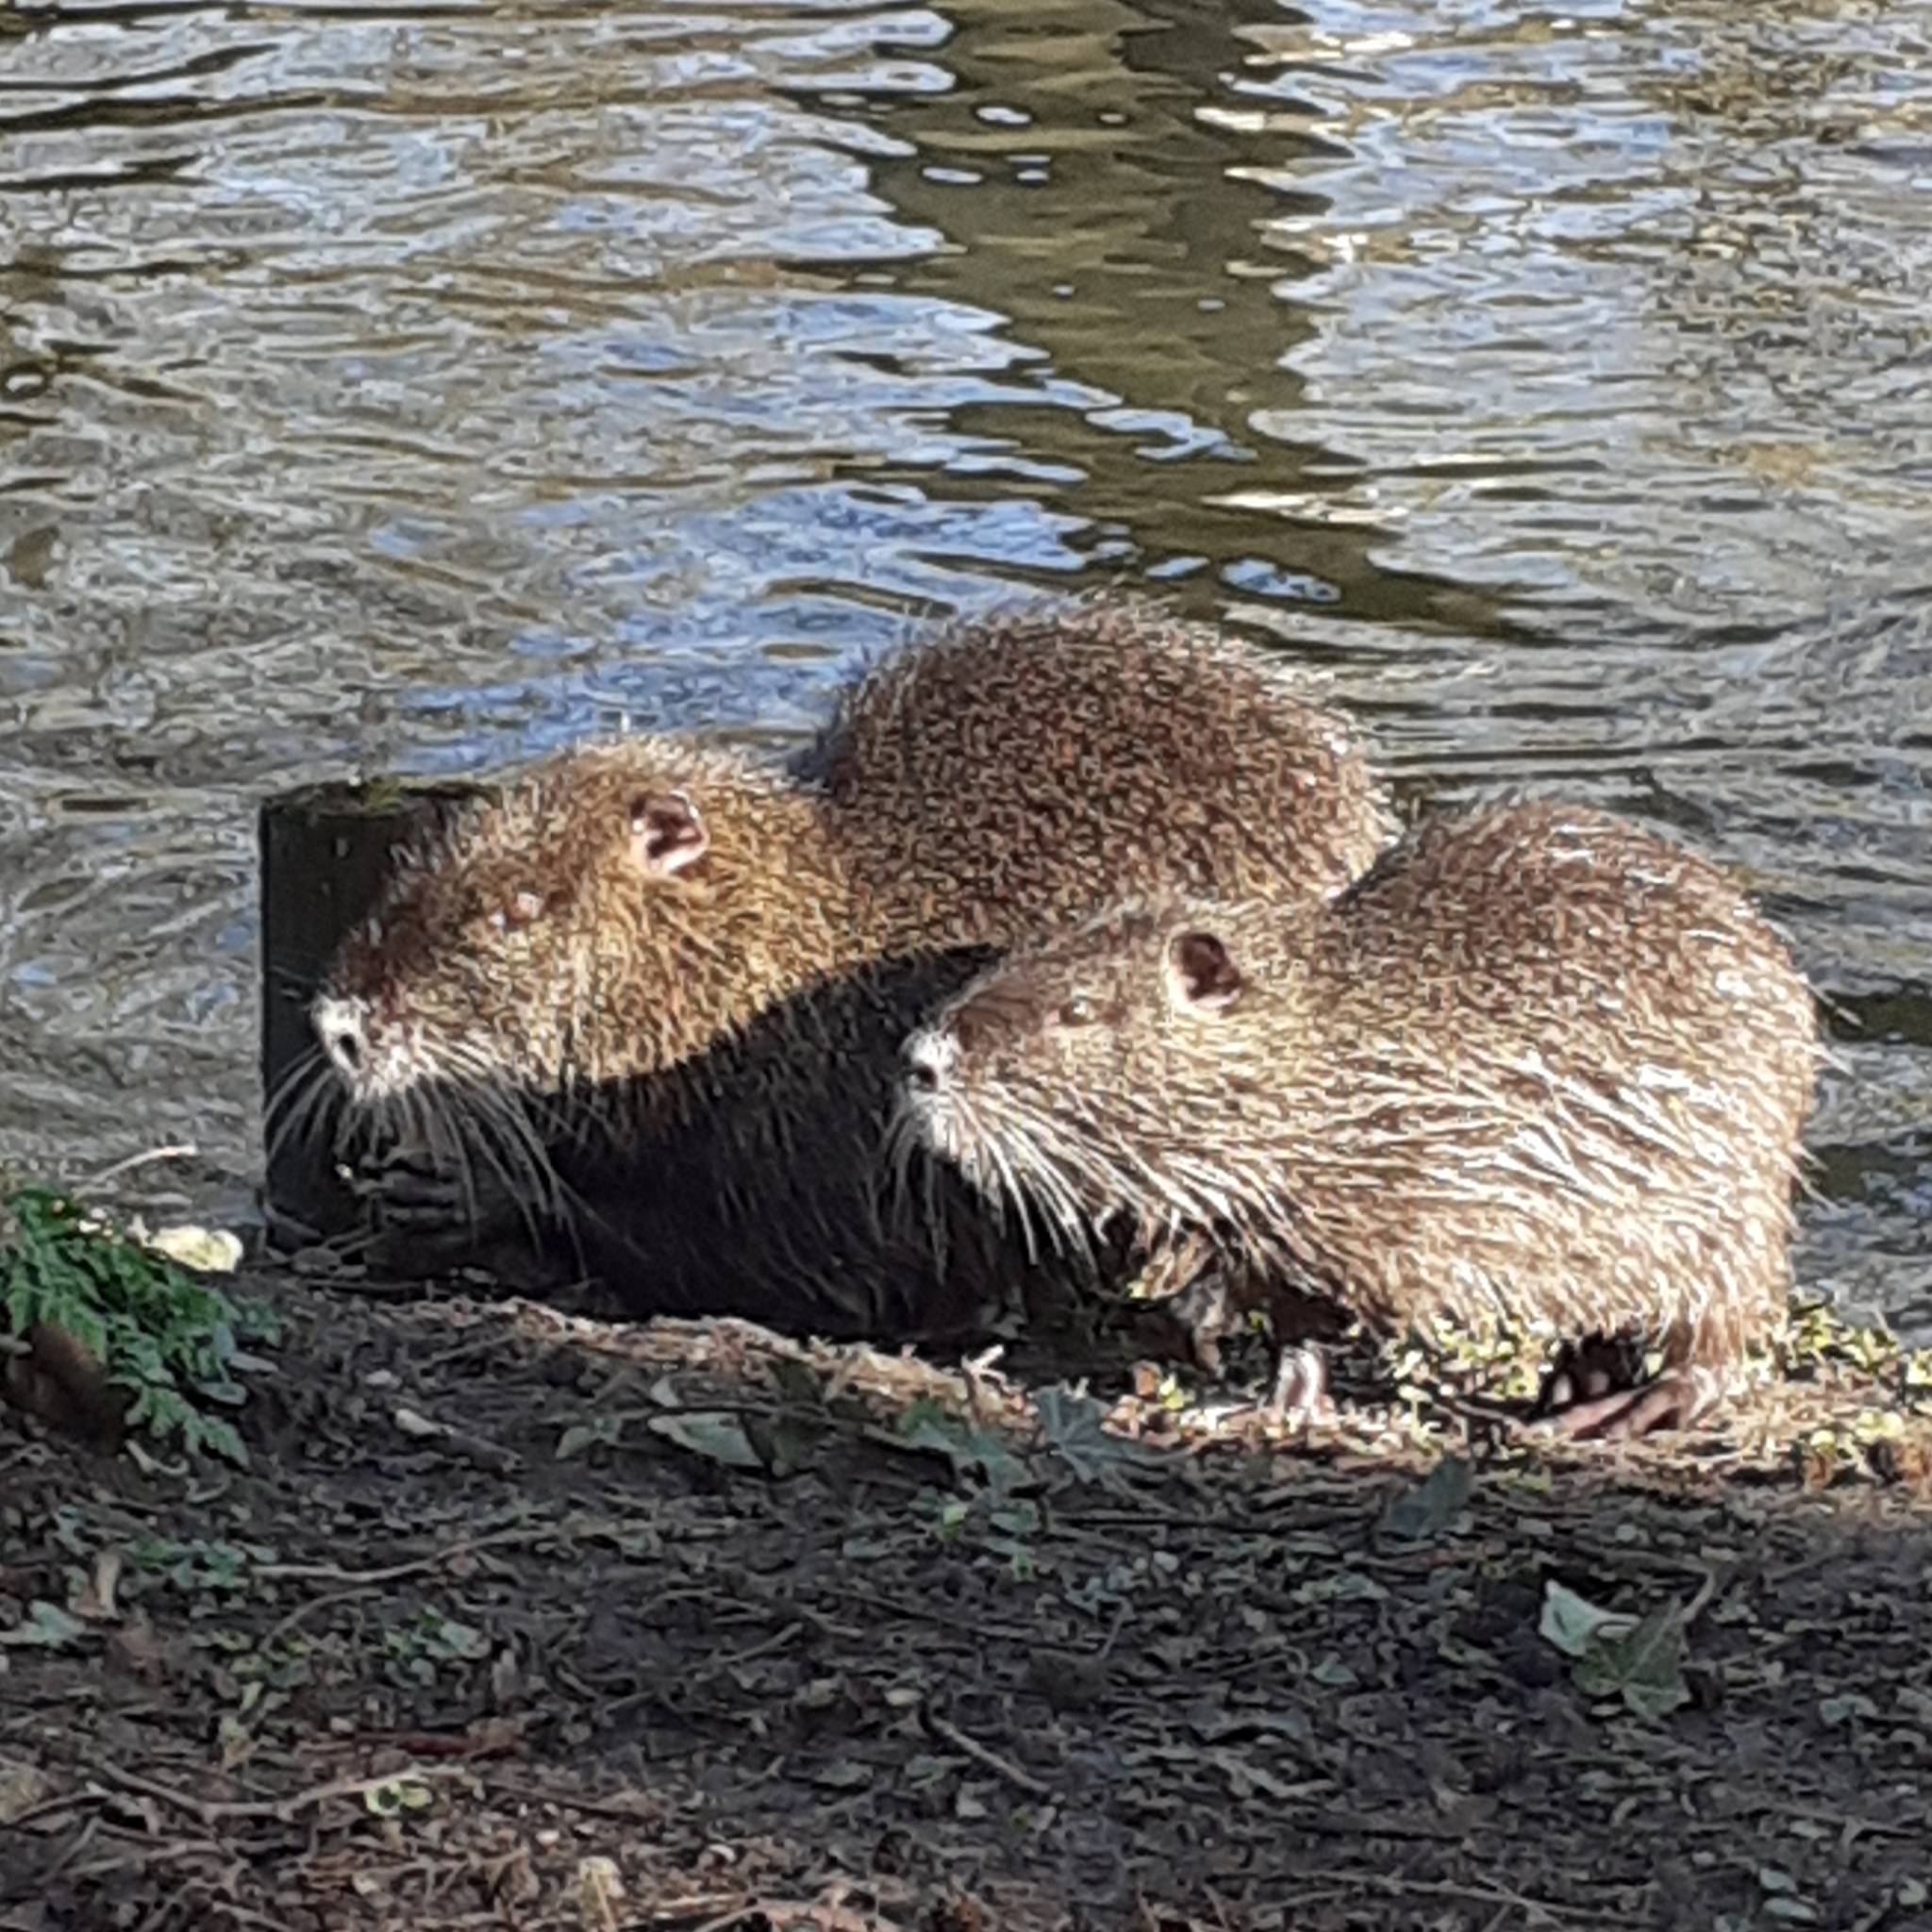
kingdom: Animalia
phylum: Chordata
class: Mammalia
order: Rodentia
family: Myocastoridae
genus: Myocastor
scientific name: Myocastor coypus
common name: Coypu
